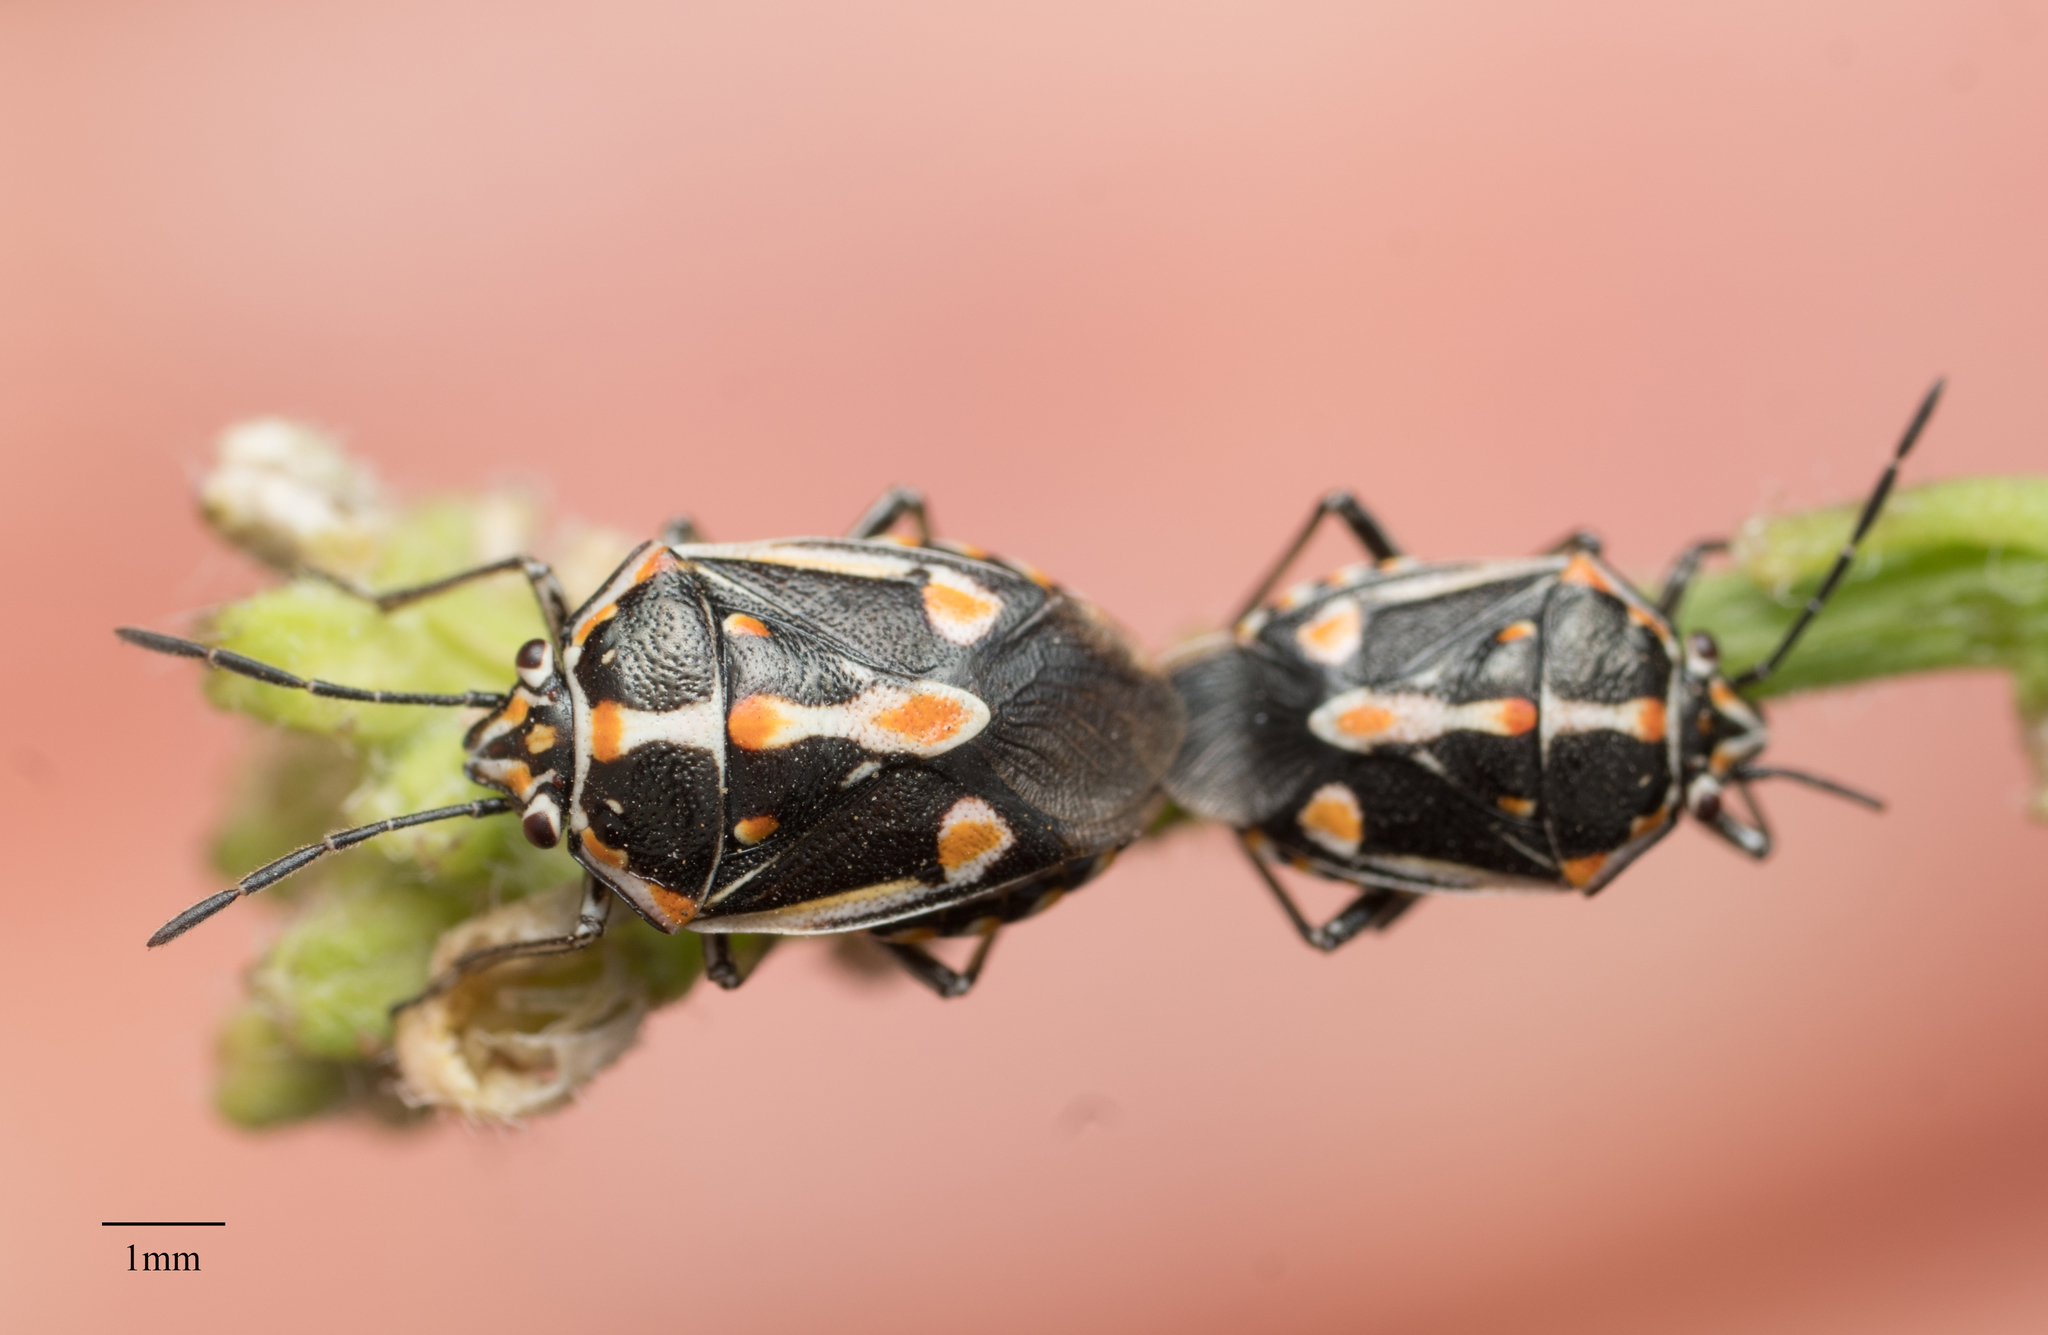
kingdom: Animalia
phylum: Arthropoda
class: Insecta
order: Hemiptera
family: Pentatomidae
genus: Bagrada
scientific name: Bagrada hilaris
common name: Bagrada bug
